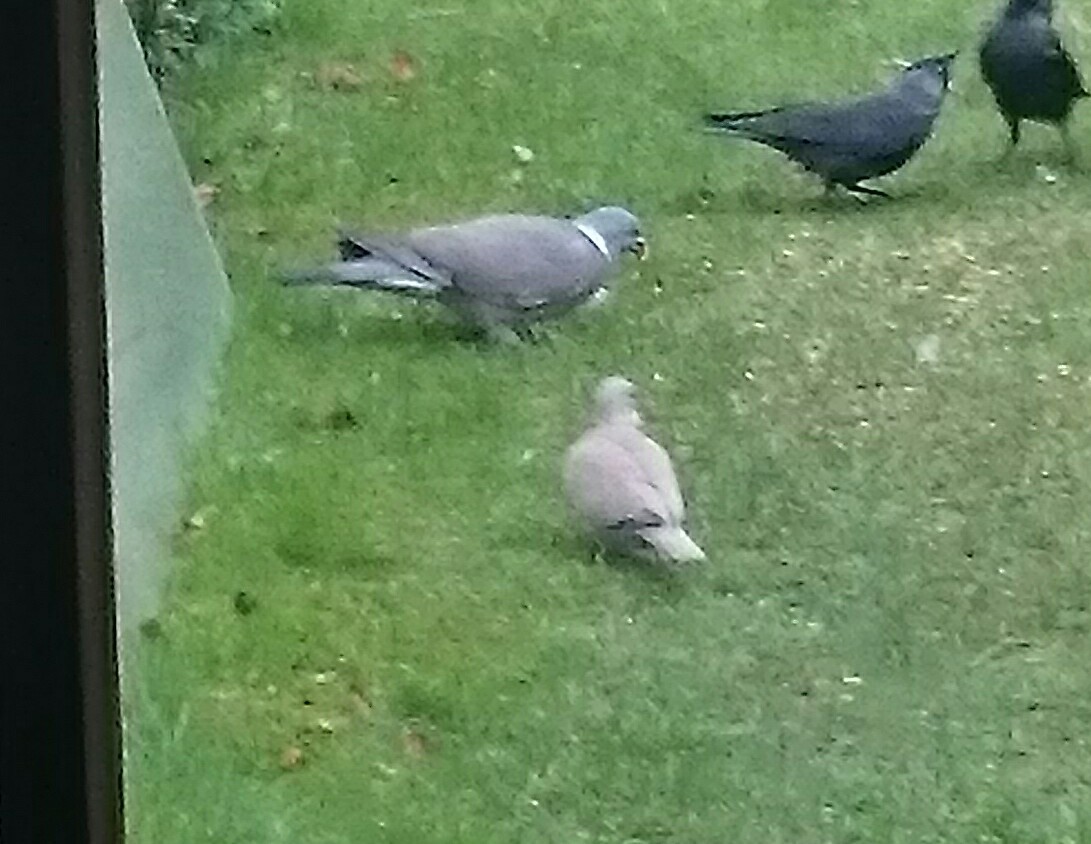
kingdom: Animalia
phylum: Chordata
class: Aves
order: Columbiformes
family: Columbidae
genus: Streptopelia
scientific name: Streptopelia decaocto
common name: Eurasian collared dove
